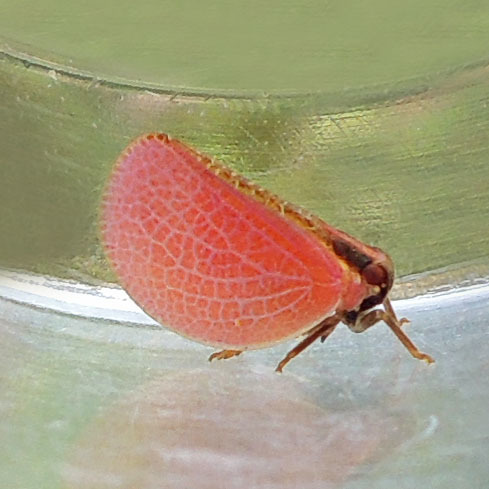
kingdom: Animalia
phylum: Arthropoda
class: Insecta
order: Hemiptera
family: Acanaloniidae
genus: Acanalonia
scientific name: Acanalonia bivittata
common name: Two-striped planthopper
